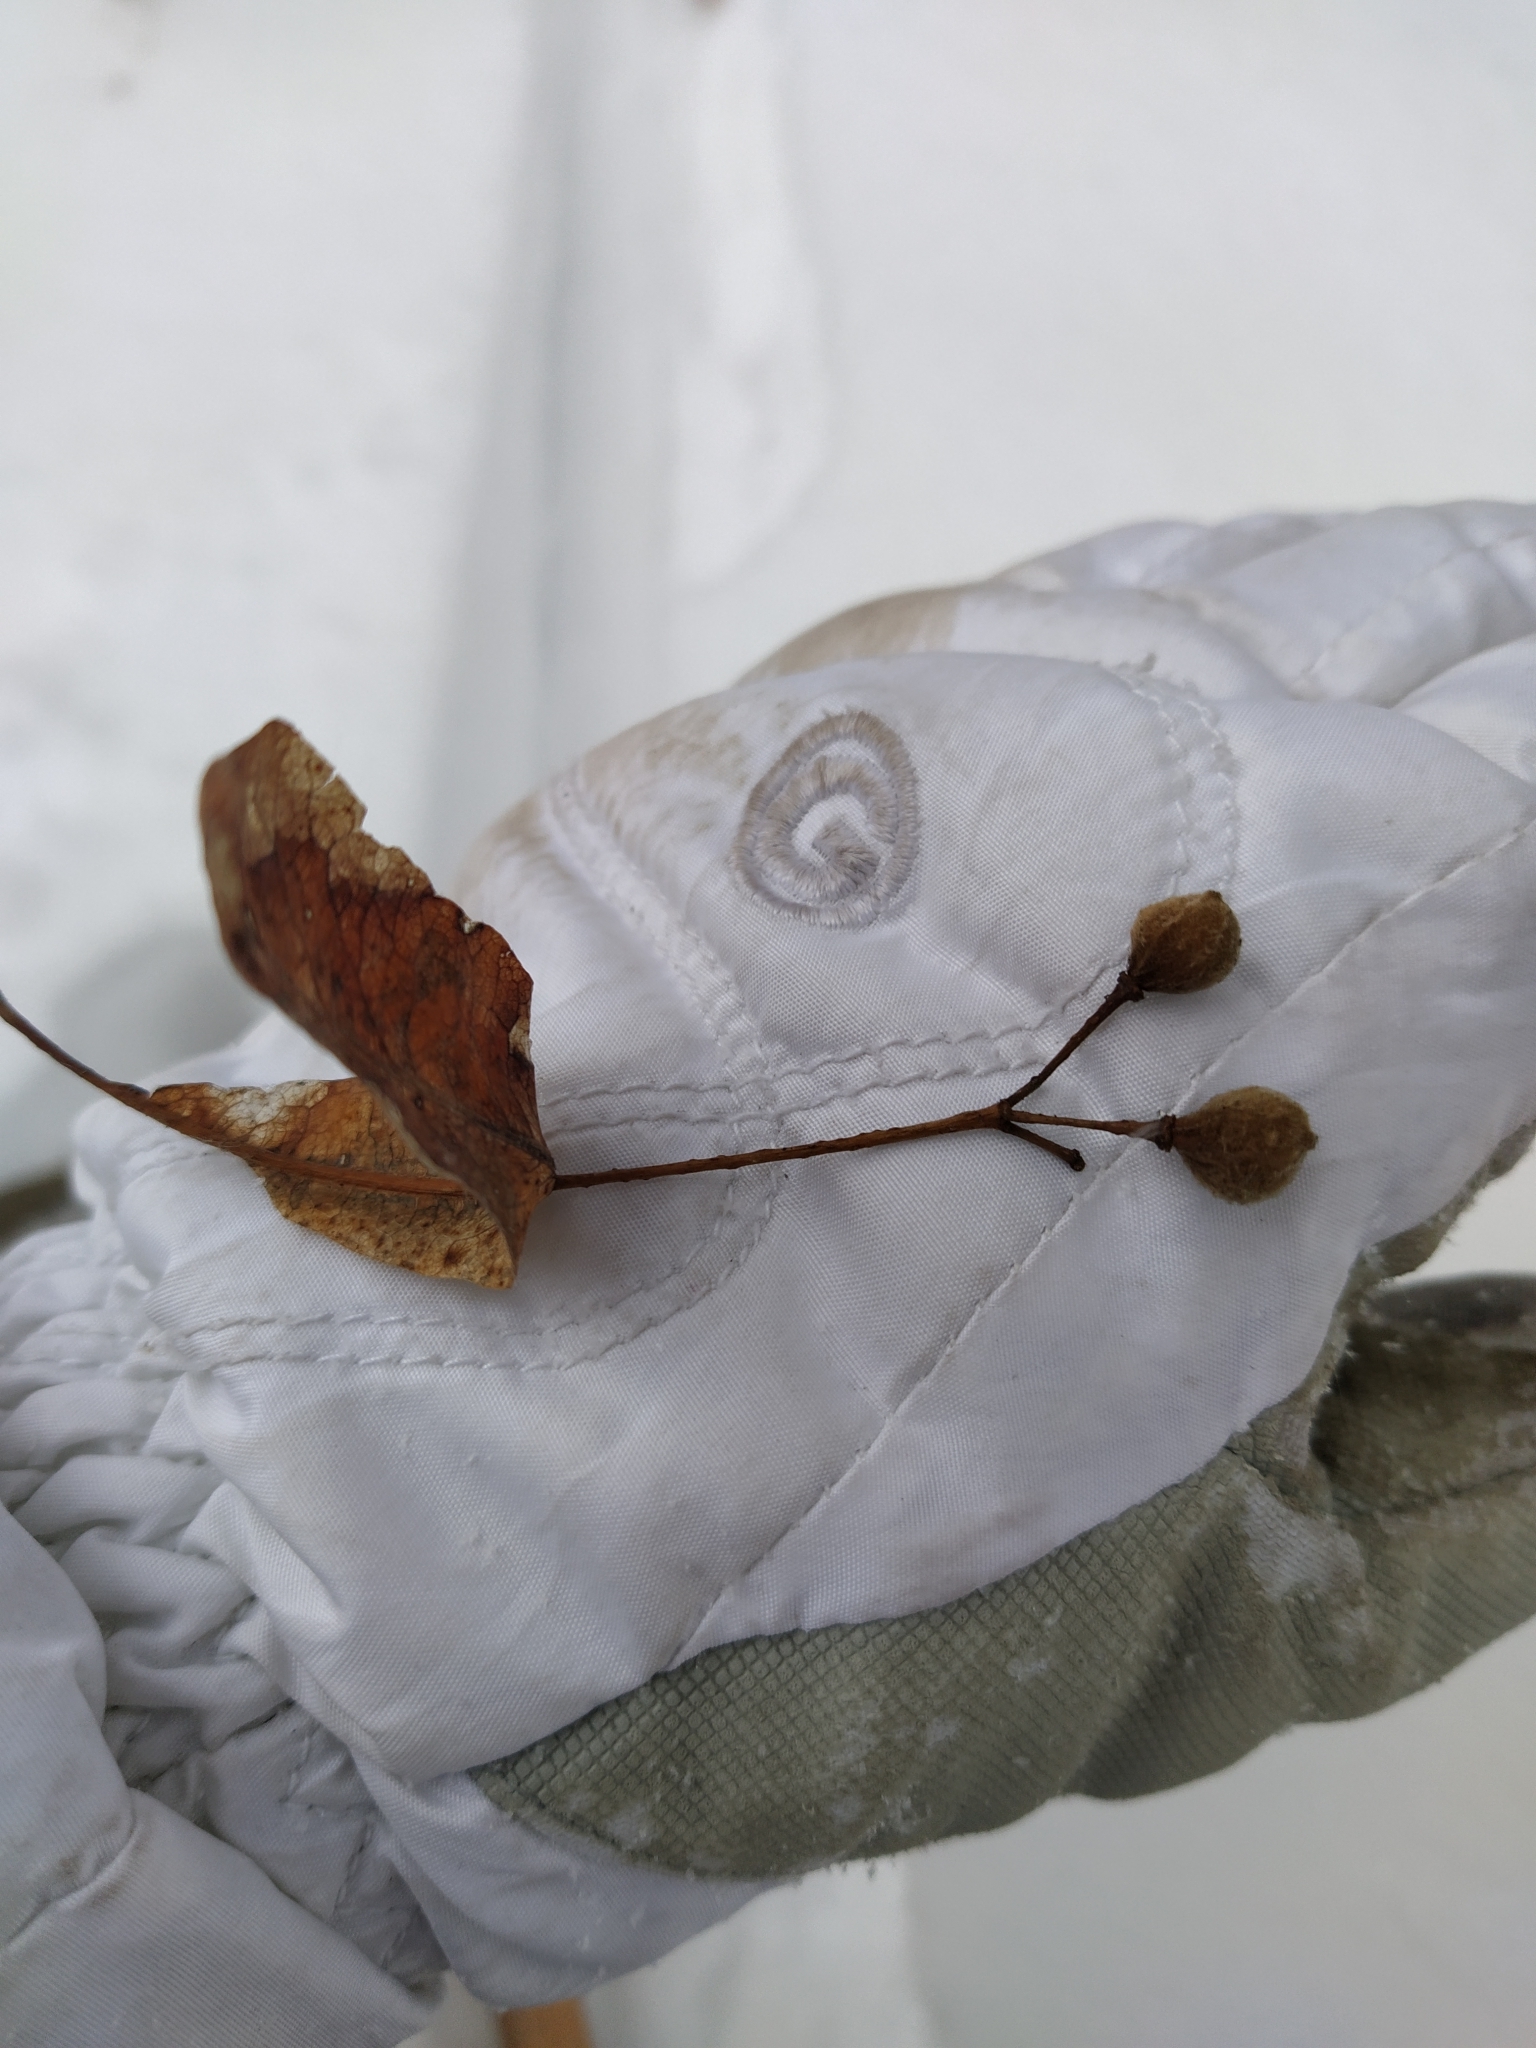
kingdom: Plantae
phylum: Tracheophyta
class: Magnoliopsida
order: Malvales
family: Malvaceae
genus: Tilia
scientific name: Tilia platyphyllos
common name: Large-leaved lime
